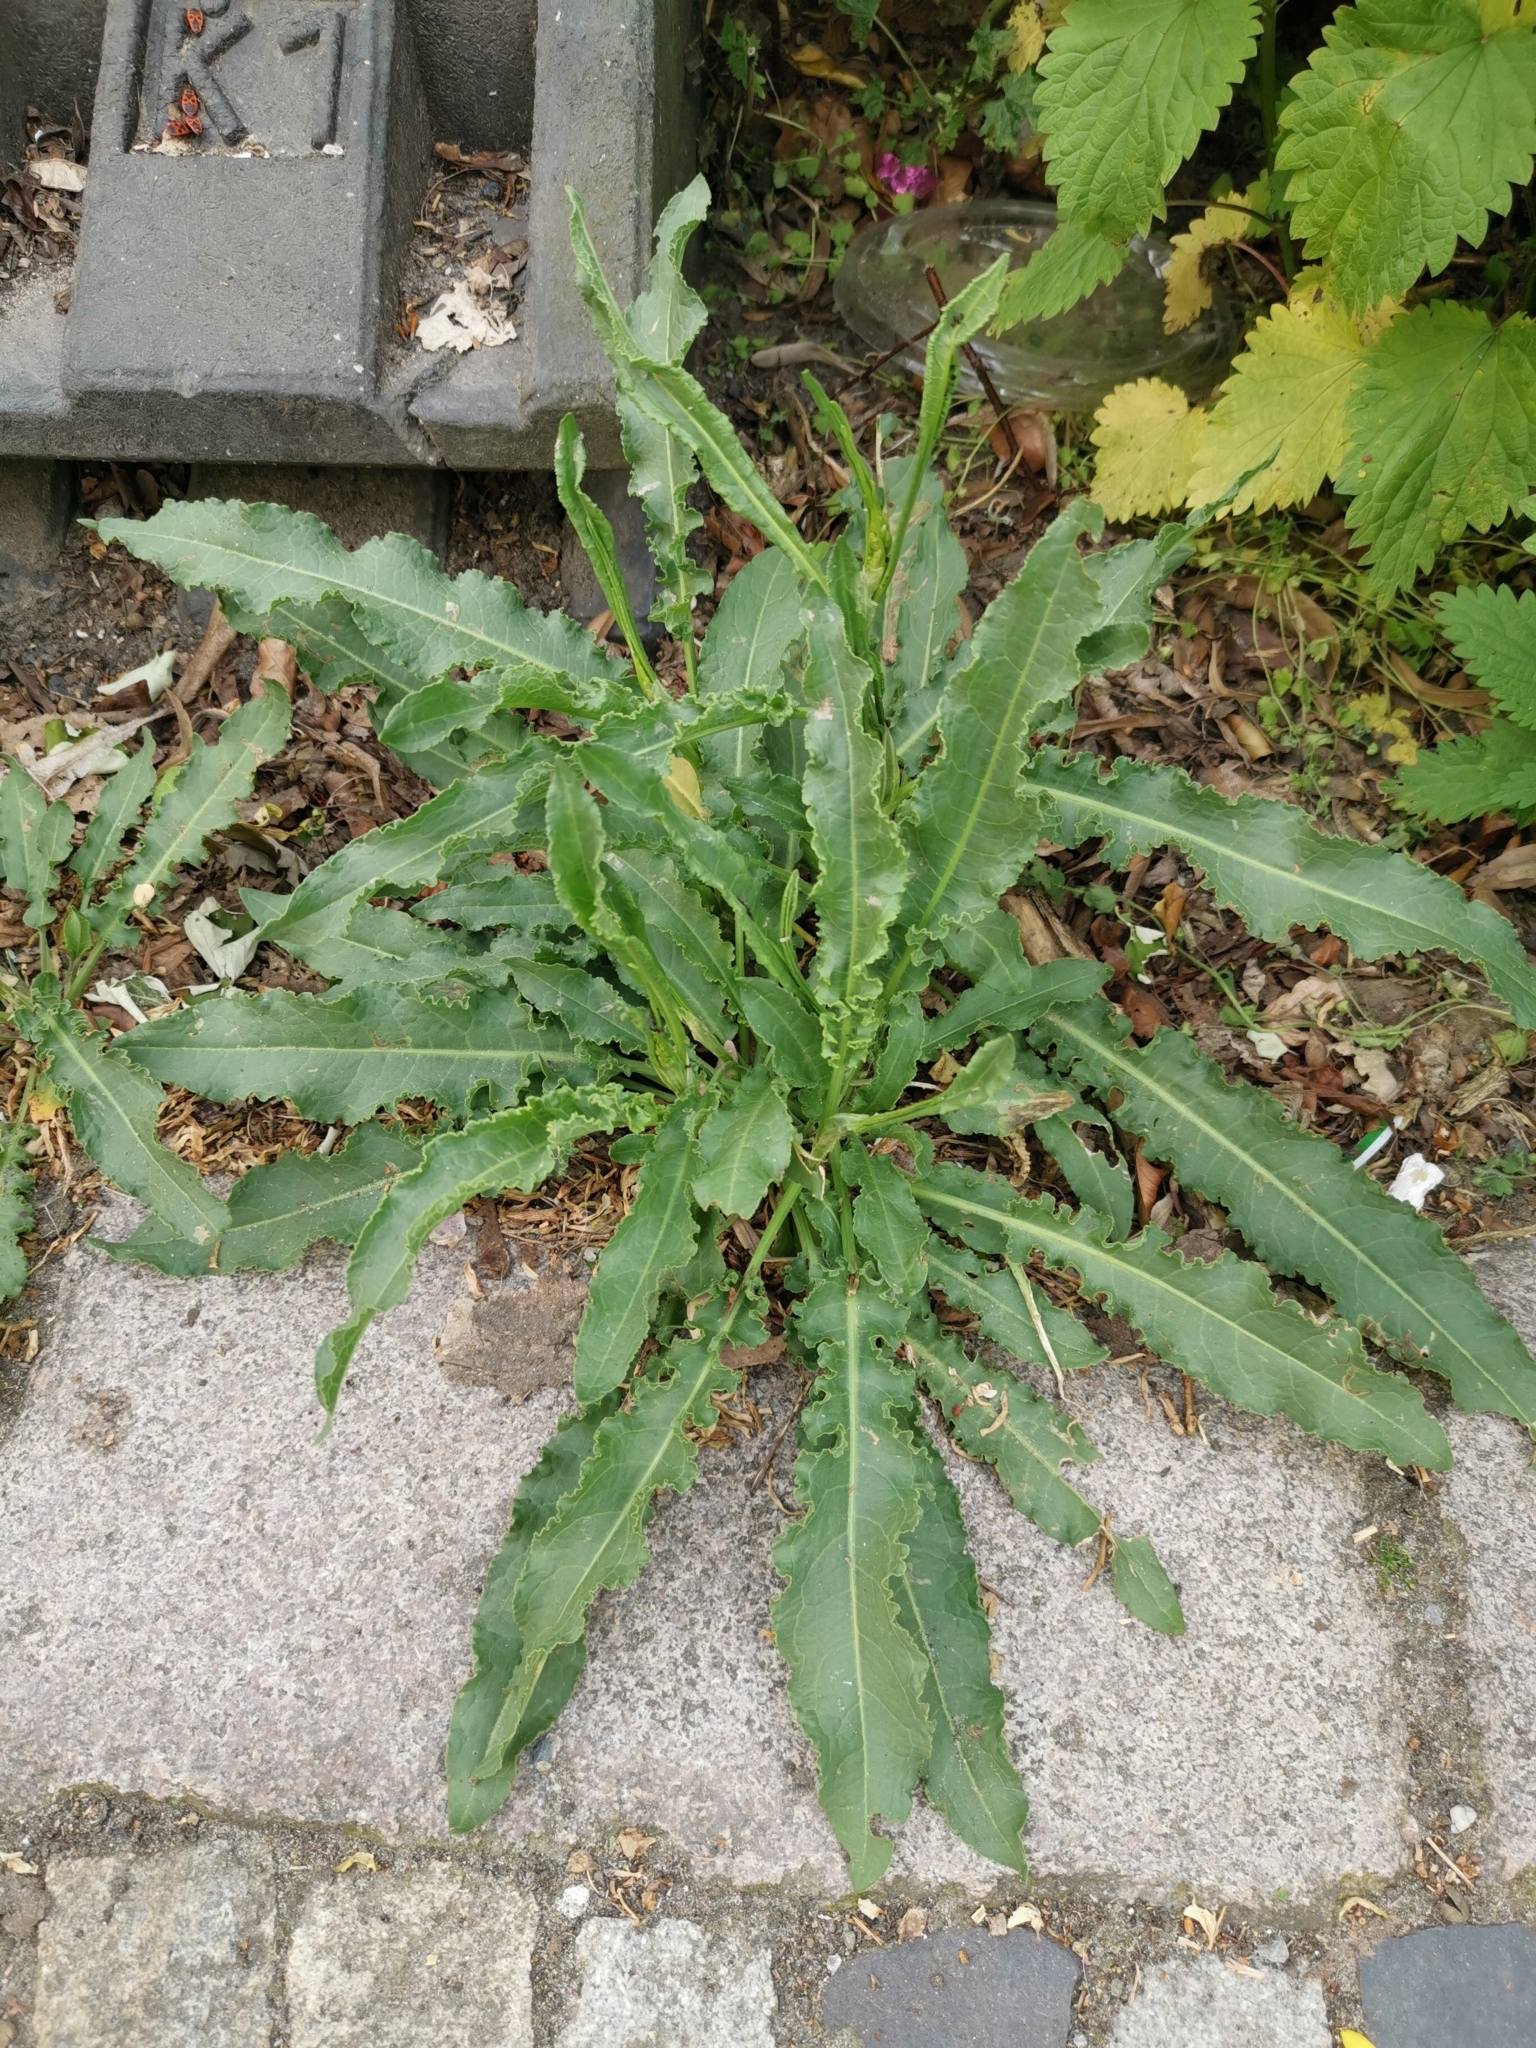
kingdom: Plantae
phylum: Tracheophyta
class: Magnoliopsida
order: Caryophyllales
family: Polygonaceae
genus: Rumex
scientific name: Rumex crispus
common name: Curled dock
